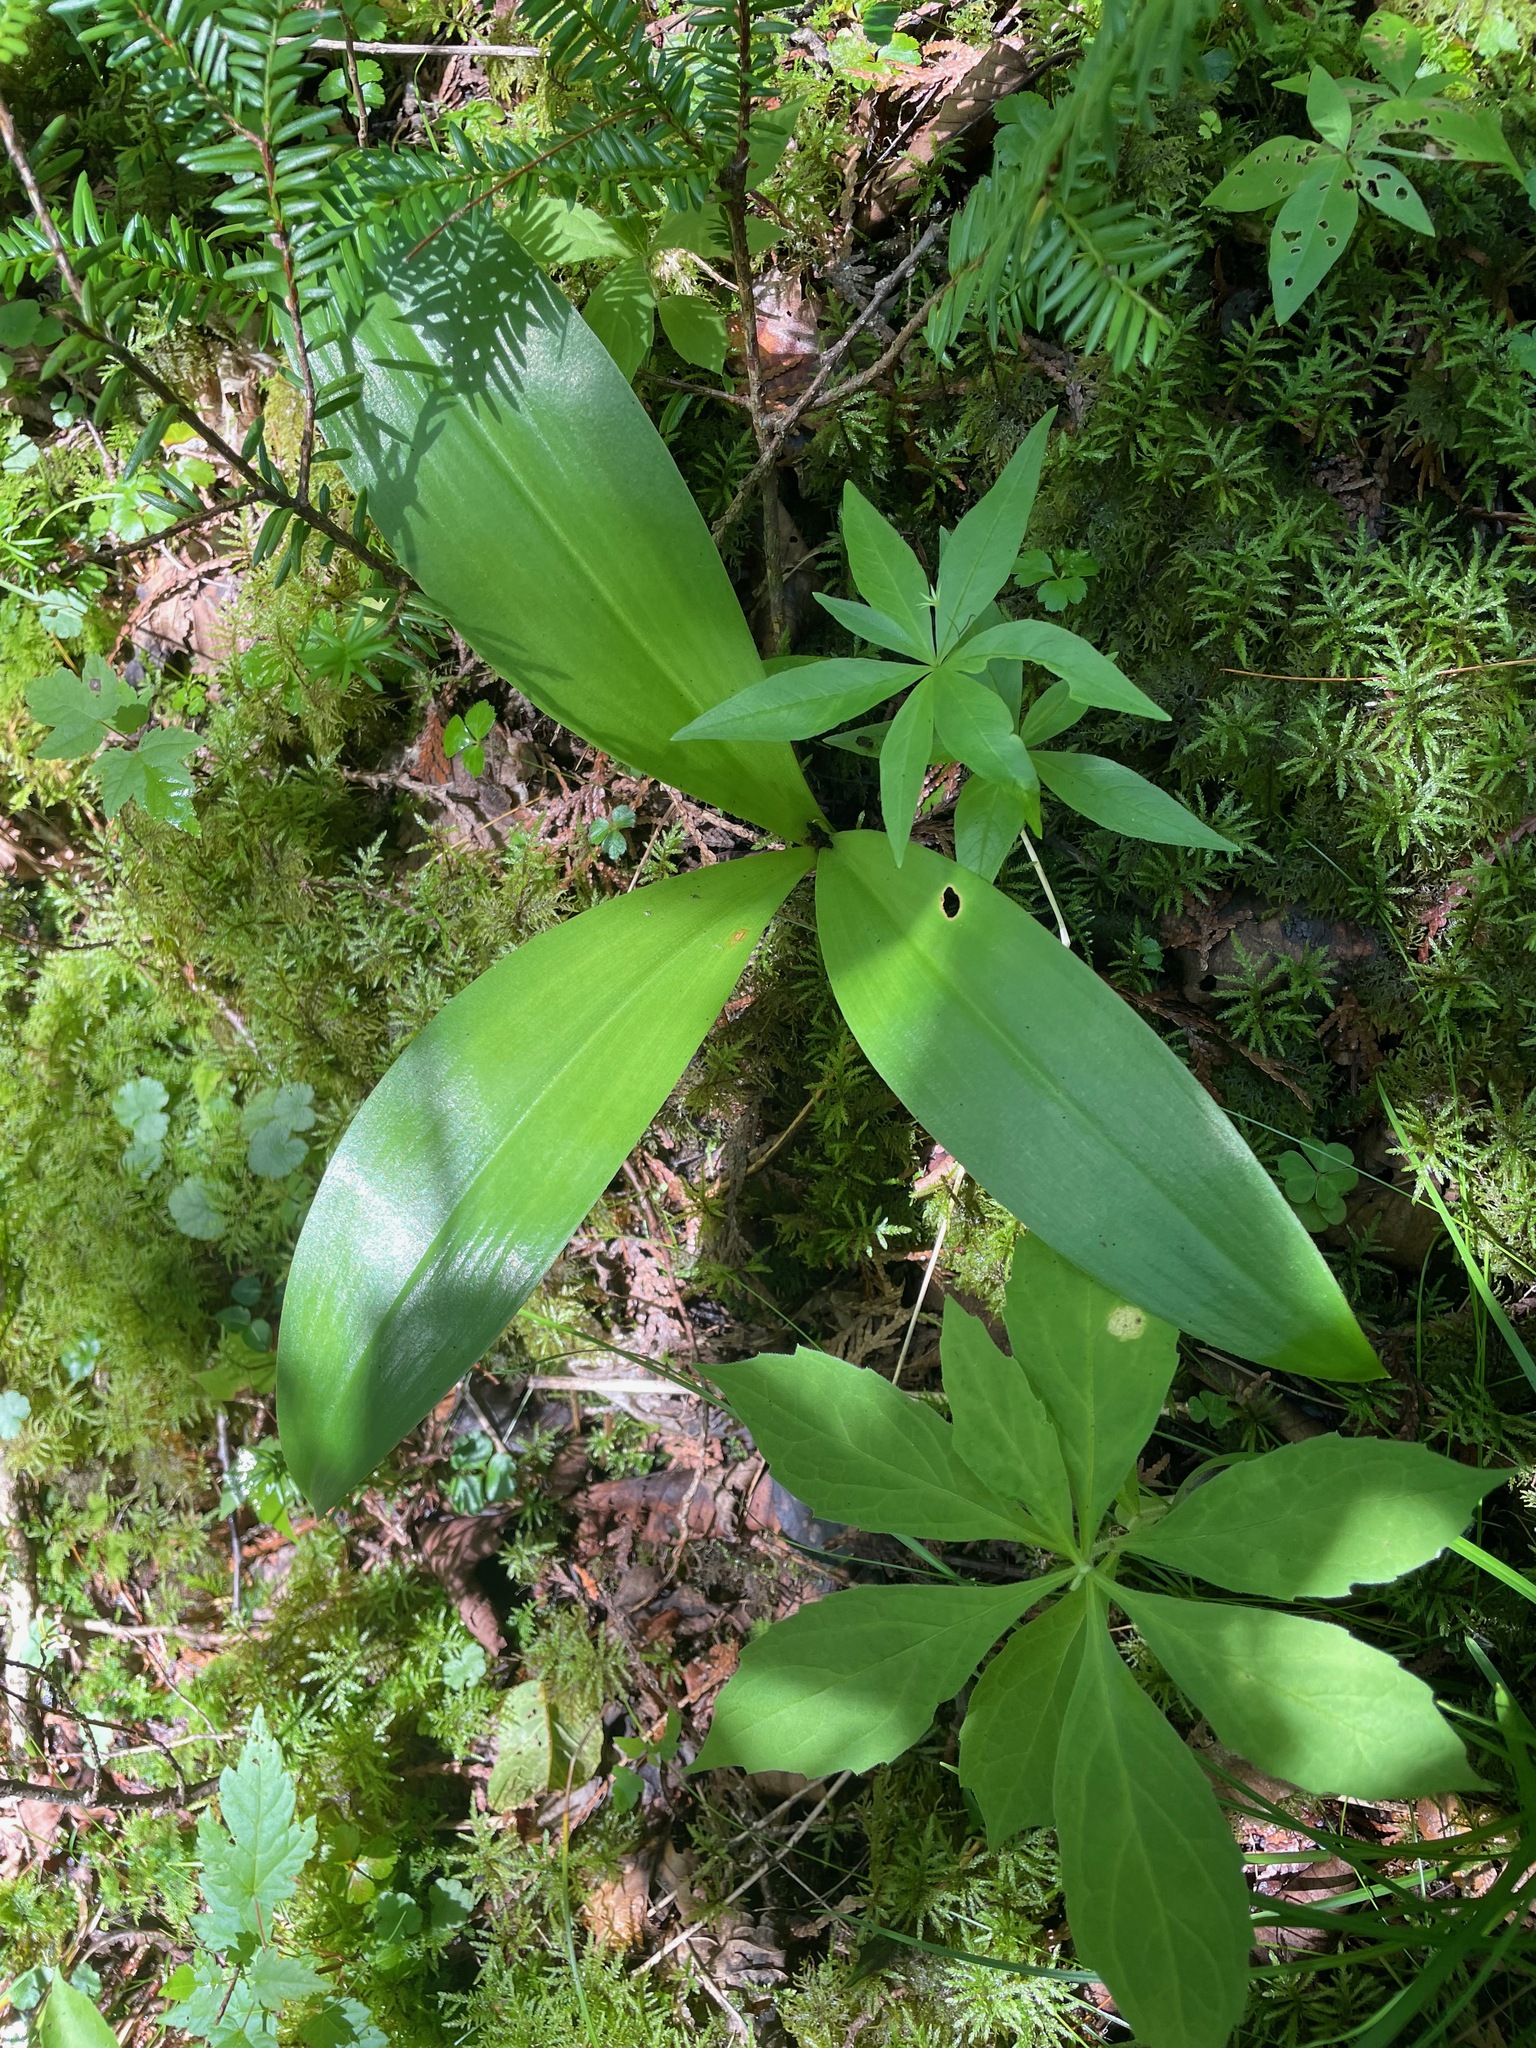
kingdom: Plantae
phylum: Tracheophyta
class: Liliopsida
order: Liliales
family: Liliaceae
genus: Clintonia
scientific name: Clintonia borealis
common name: Yellow clintonia
